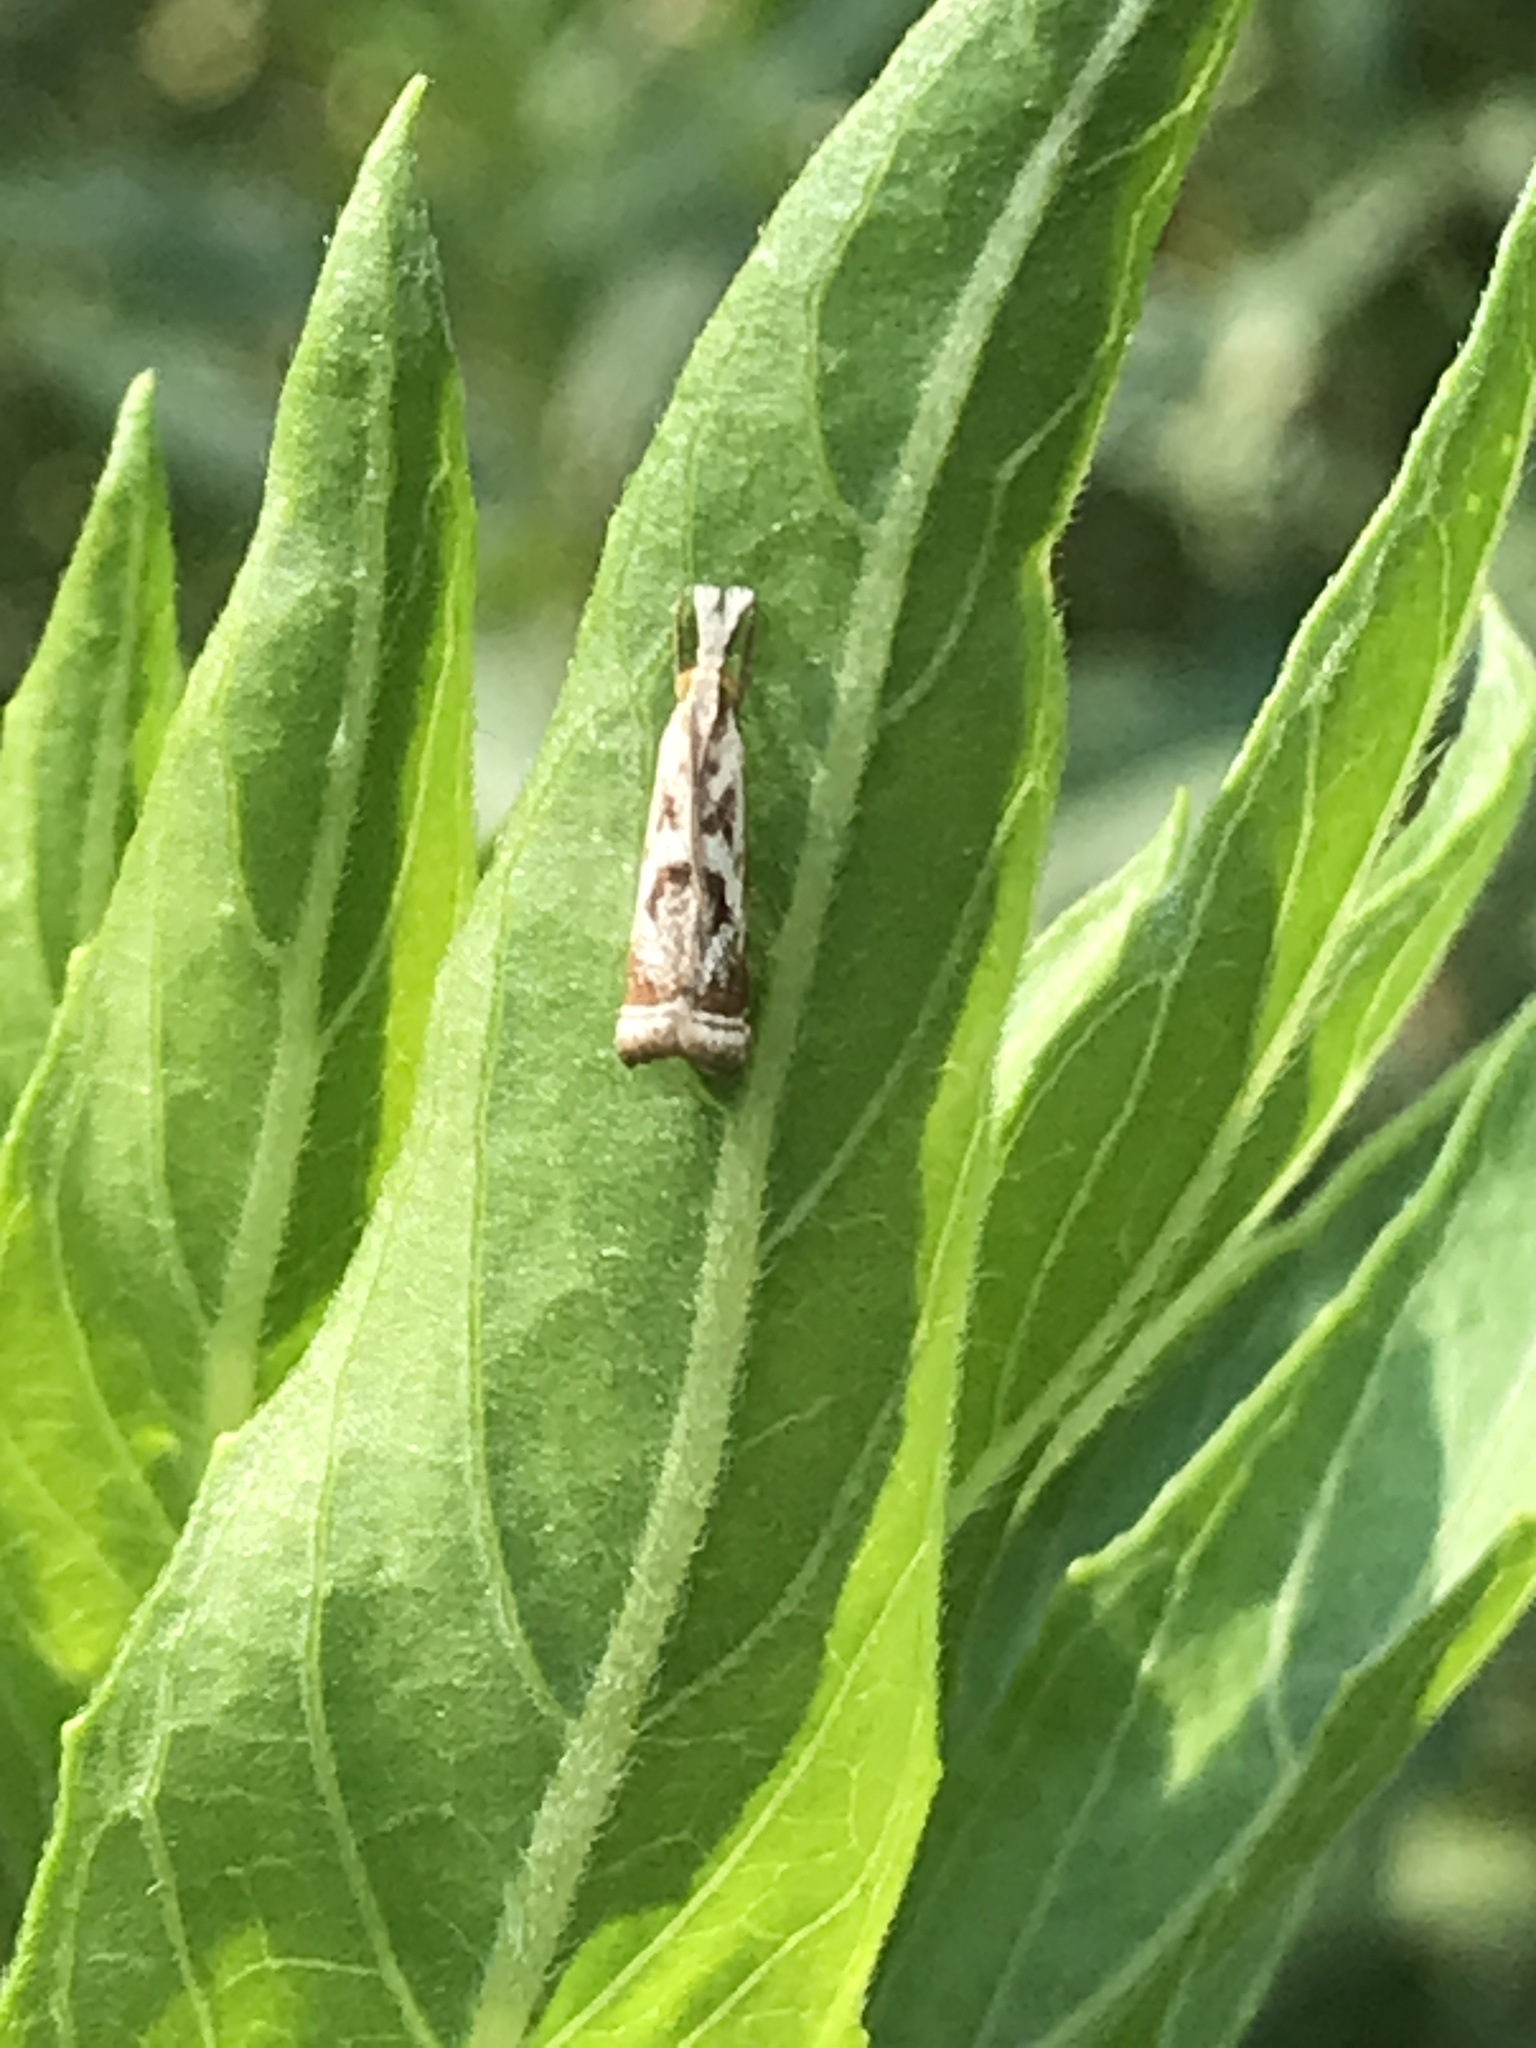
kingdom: Animalia
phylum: Arthropoda
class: Insecta
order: Lepidoptera
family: Crambidae
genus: Microcrambus
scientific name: Microcrambus elegans
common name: Elegant grass-veneer
